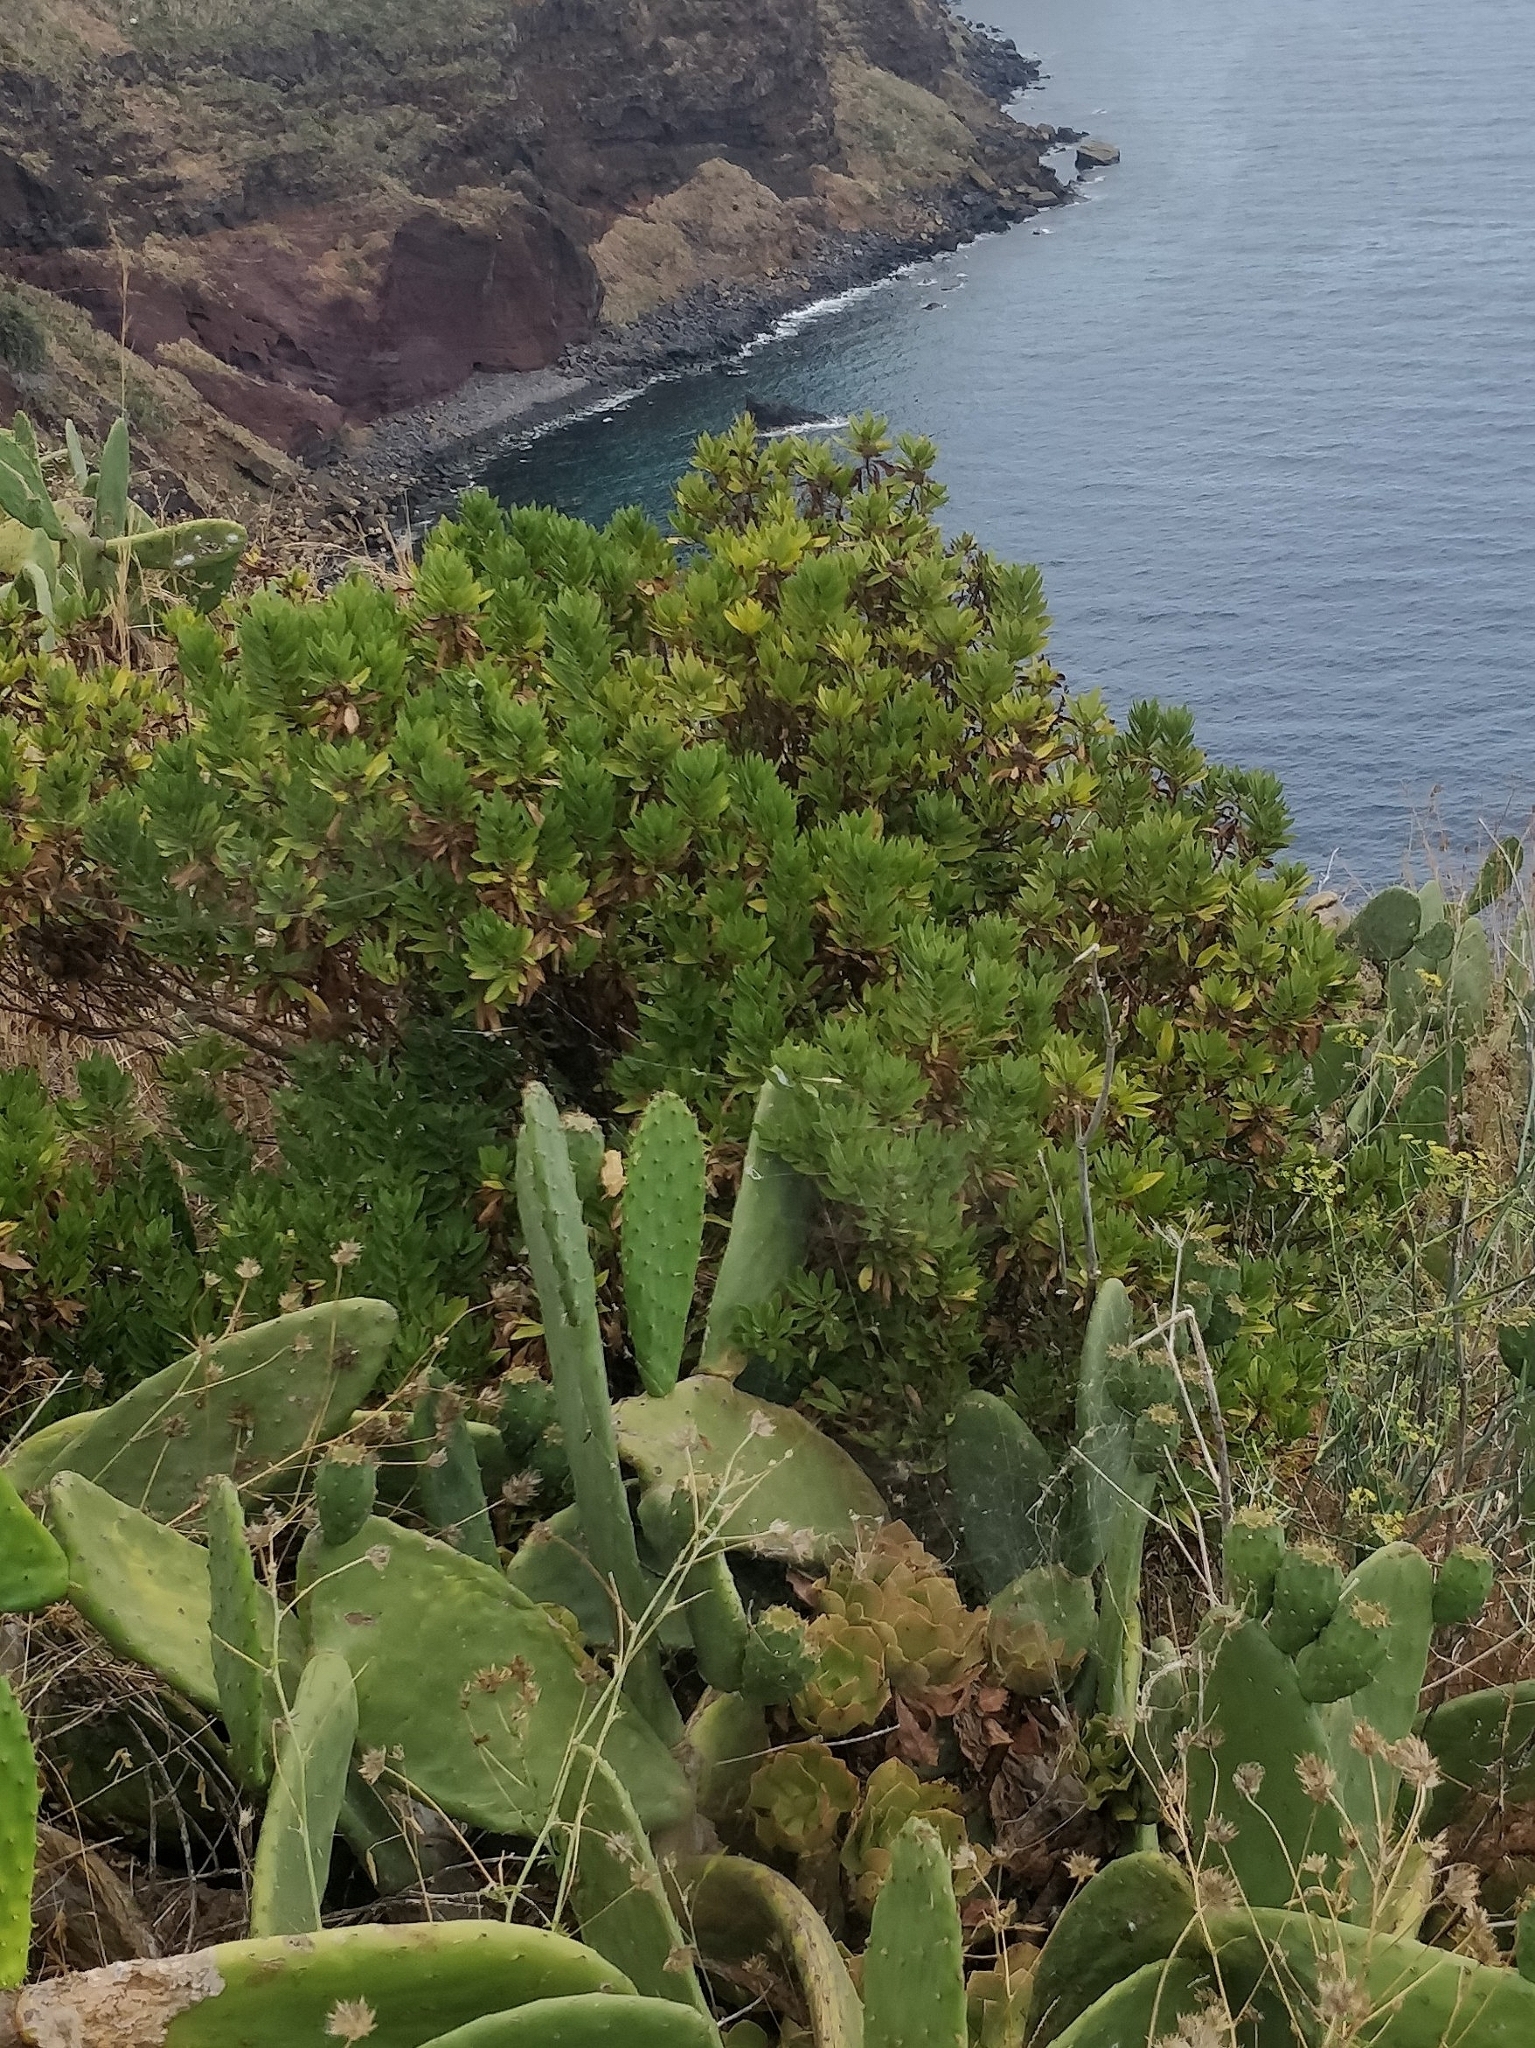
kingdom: Plantae
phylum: Tracheophyta
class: Magnoliopsida
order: Lamiales
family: Plantaginaceae
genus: Globularia
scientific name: Globularia salicina
